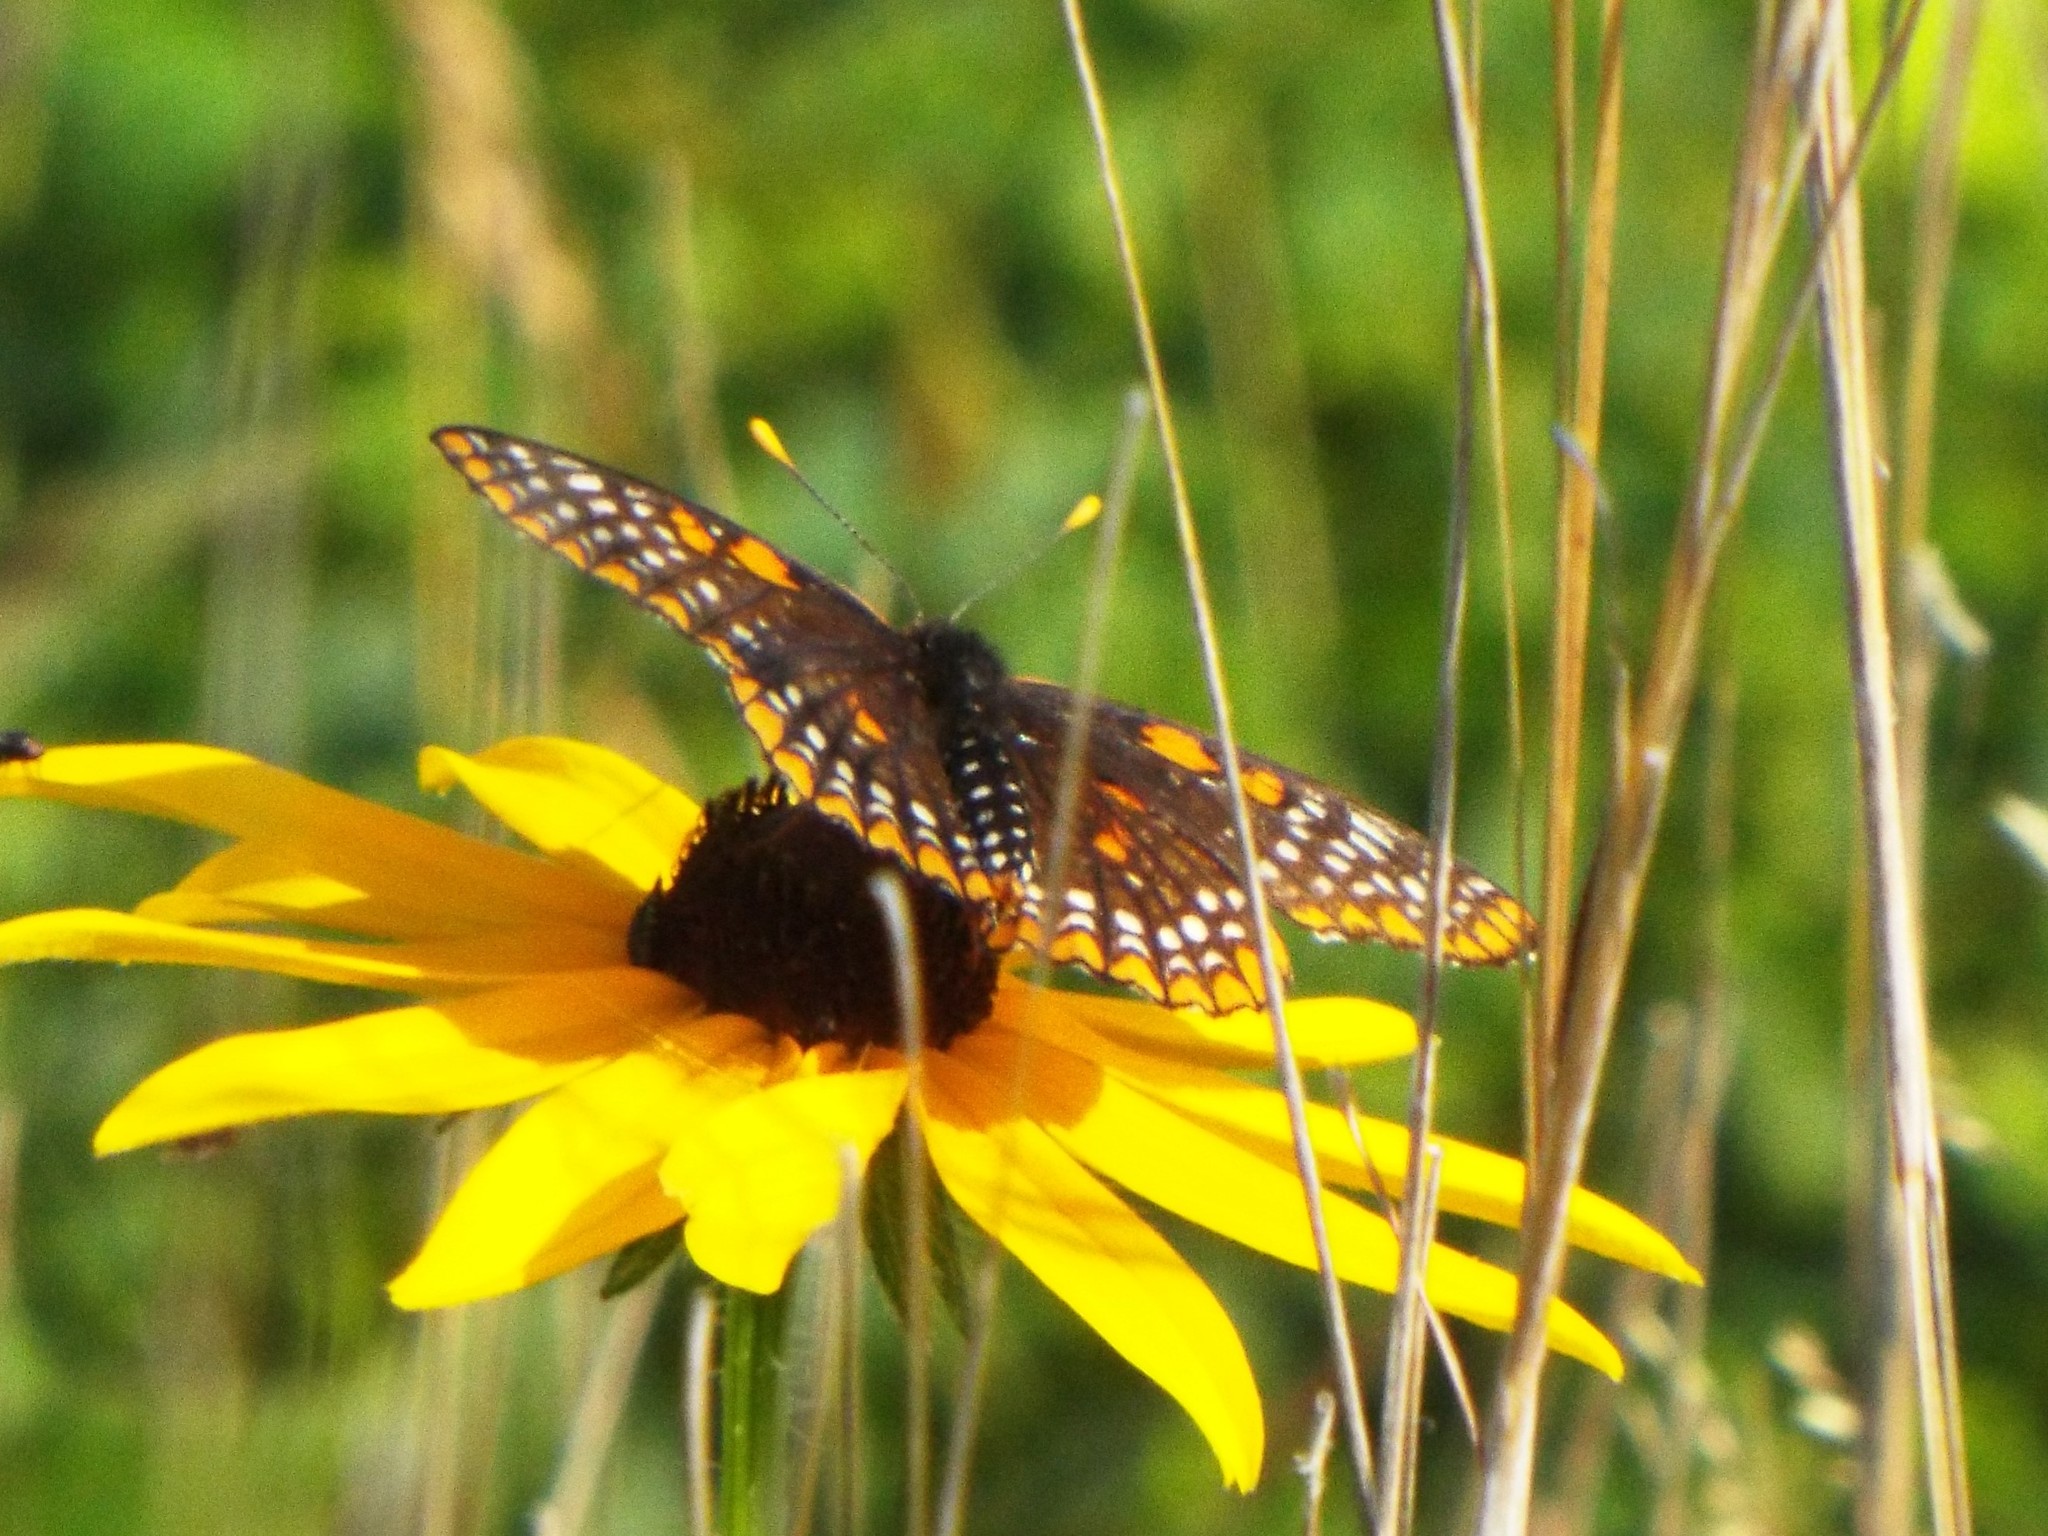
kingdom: Animalia
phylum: Arthropoda
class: Insecta
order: Lepidoptera
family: Nymphalidae
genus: Euphydryas
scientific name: Euphydryas phaeton
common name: Baltimore checkerspot
